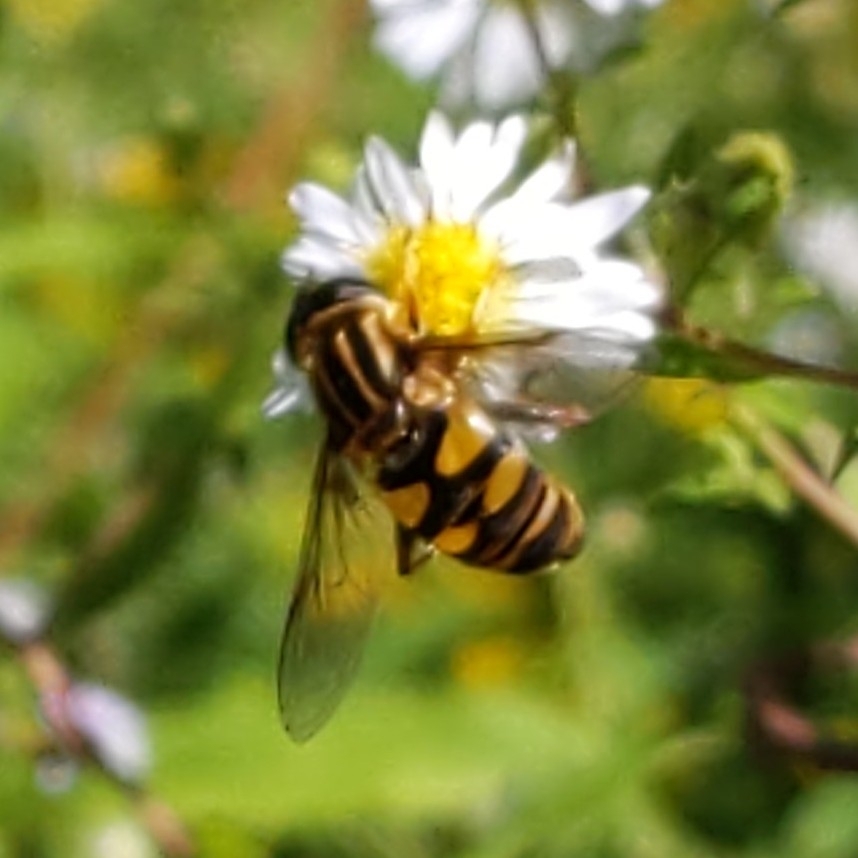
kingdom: Animalia
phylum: Arthropoda
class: Insecta
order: Diptera
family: Syrphidae
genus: Helophilus
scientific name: Helophilus fasciatus
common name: Narrow-headed marsh fly
